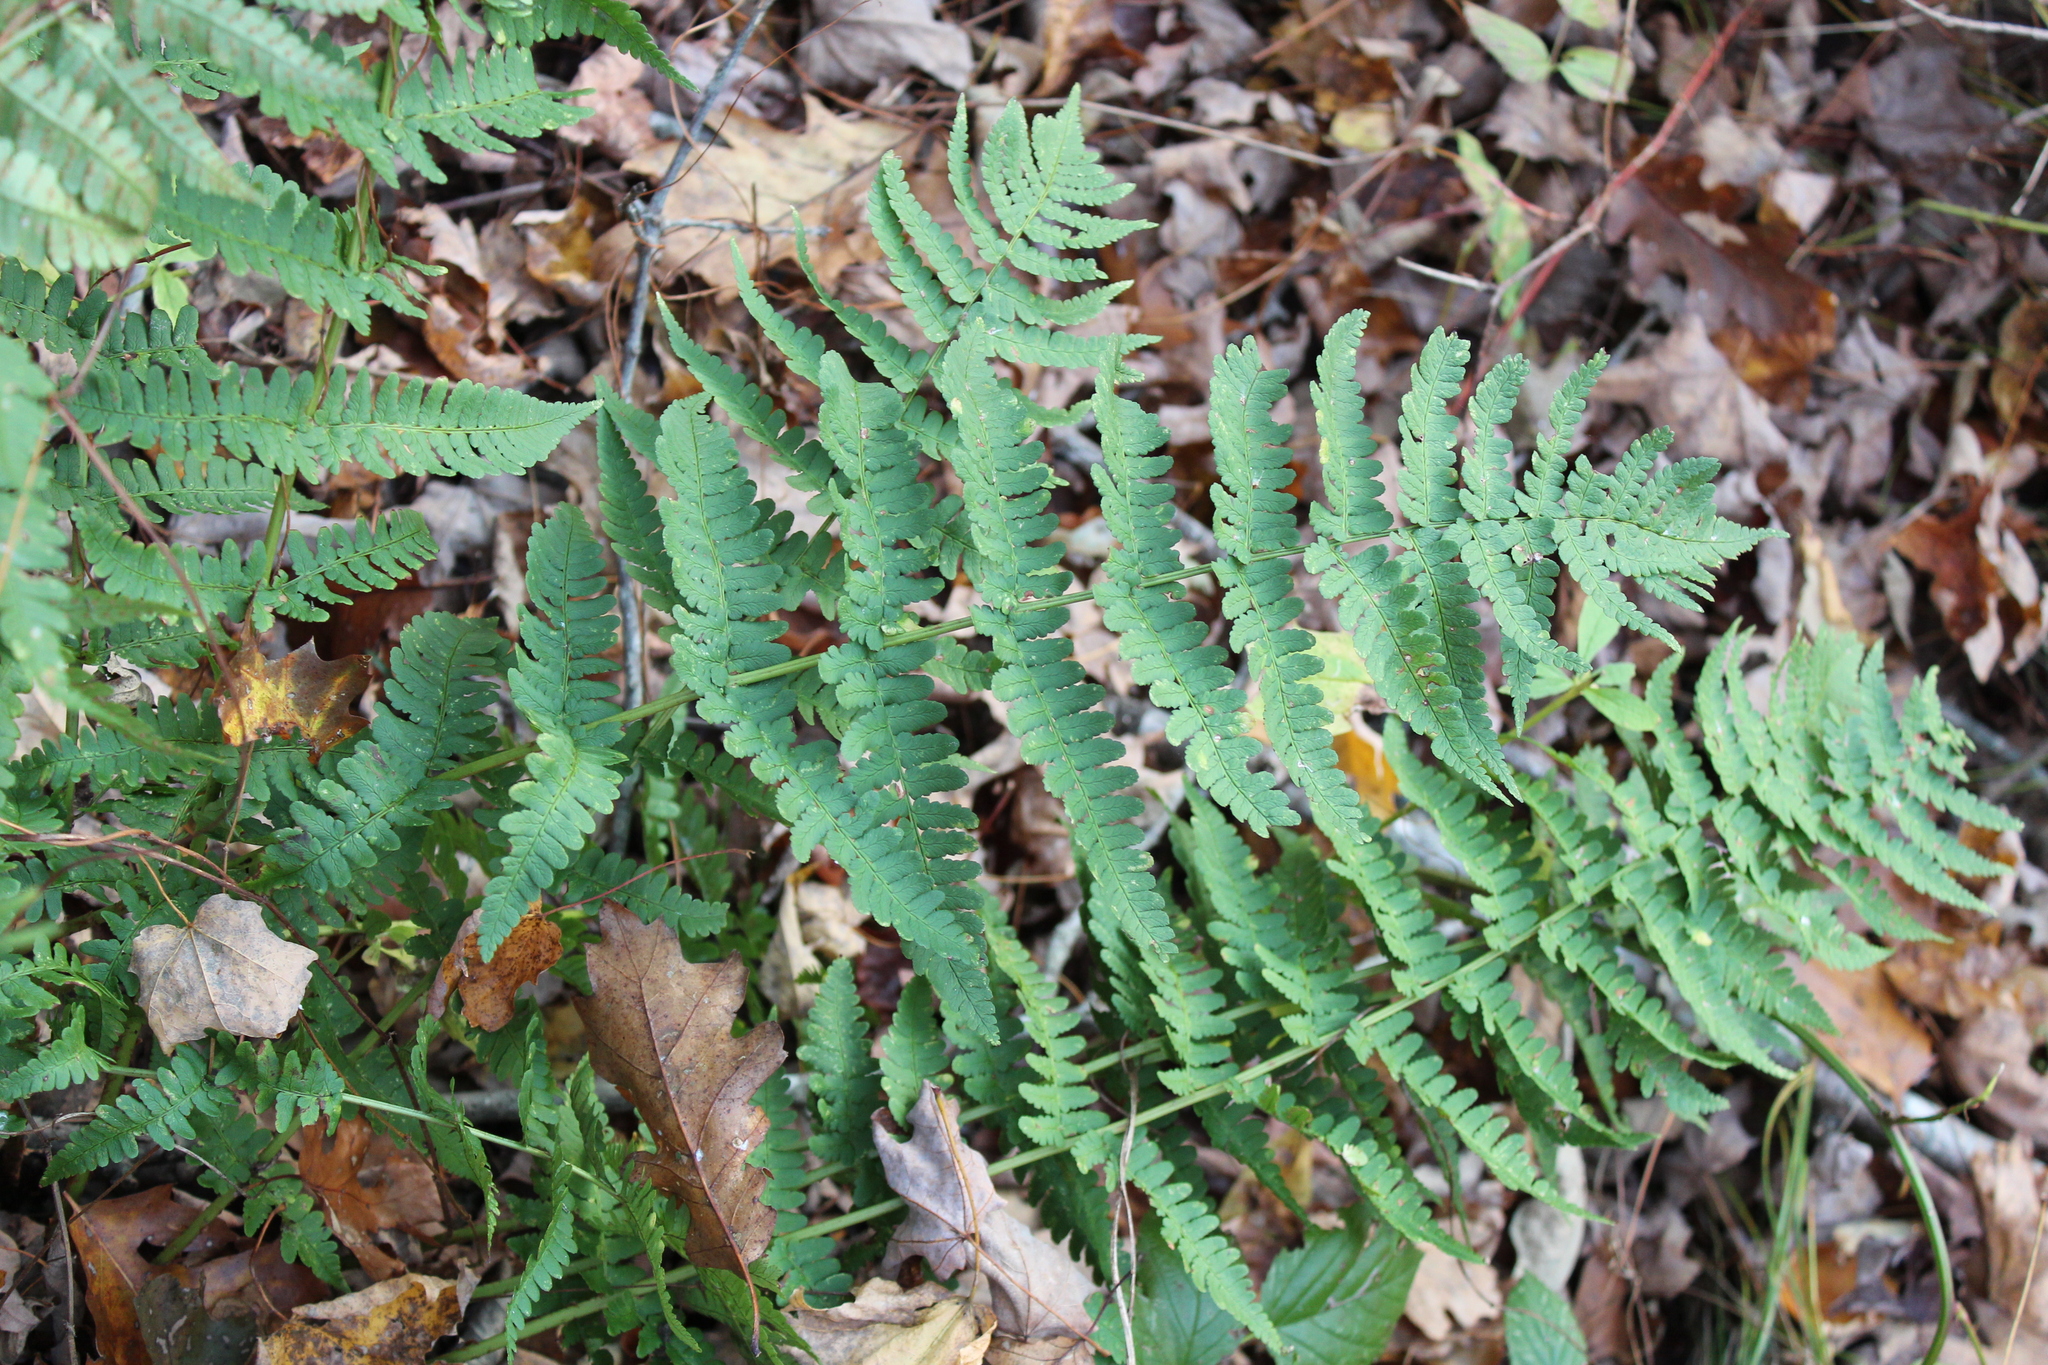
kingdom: Plantae
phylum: Tracheophyta
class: Polypodiopsida
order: Polypodiales
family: Dryopteridaceae
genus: Dryopteris
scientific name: Dryopteris marginalis
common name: Marginal wood fern
